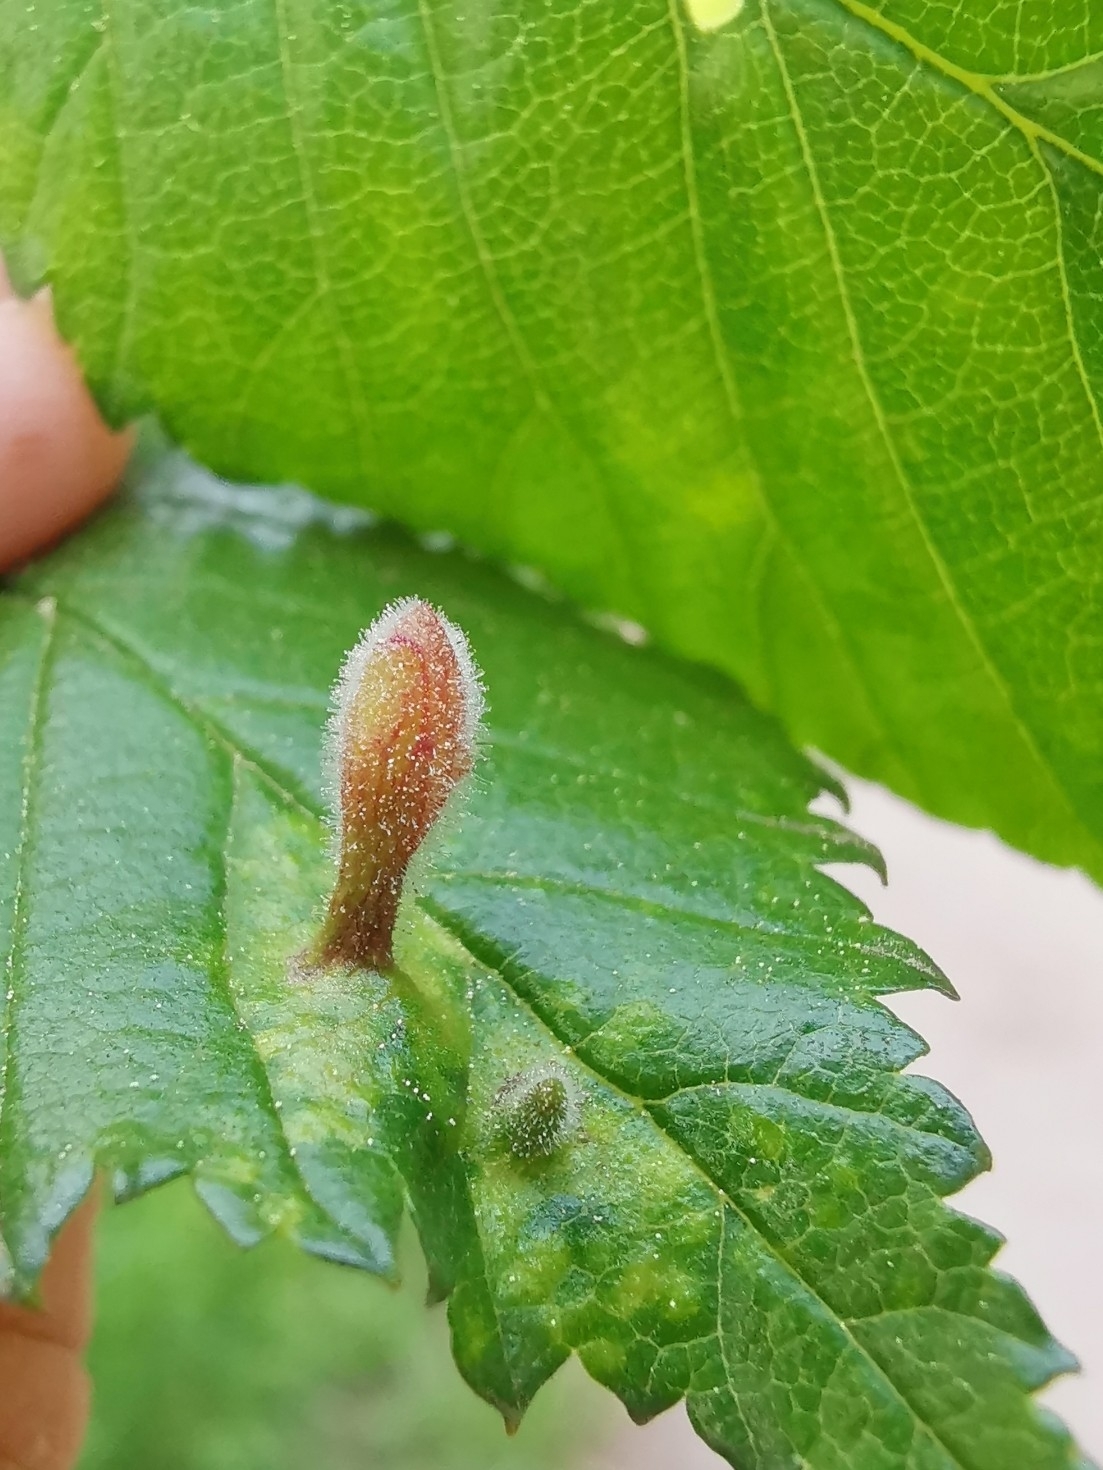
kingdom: Animalia
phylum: Arthropoda
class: Insecta
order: Hemiptera
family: Aphididae
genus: Tetraneura
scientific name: Tetraneura nigriabdominalis
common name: Aphid
